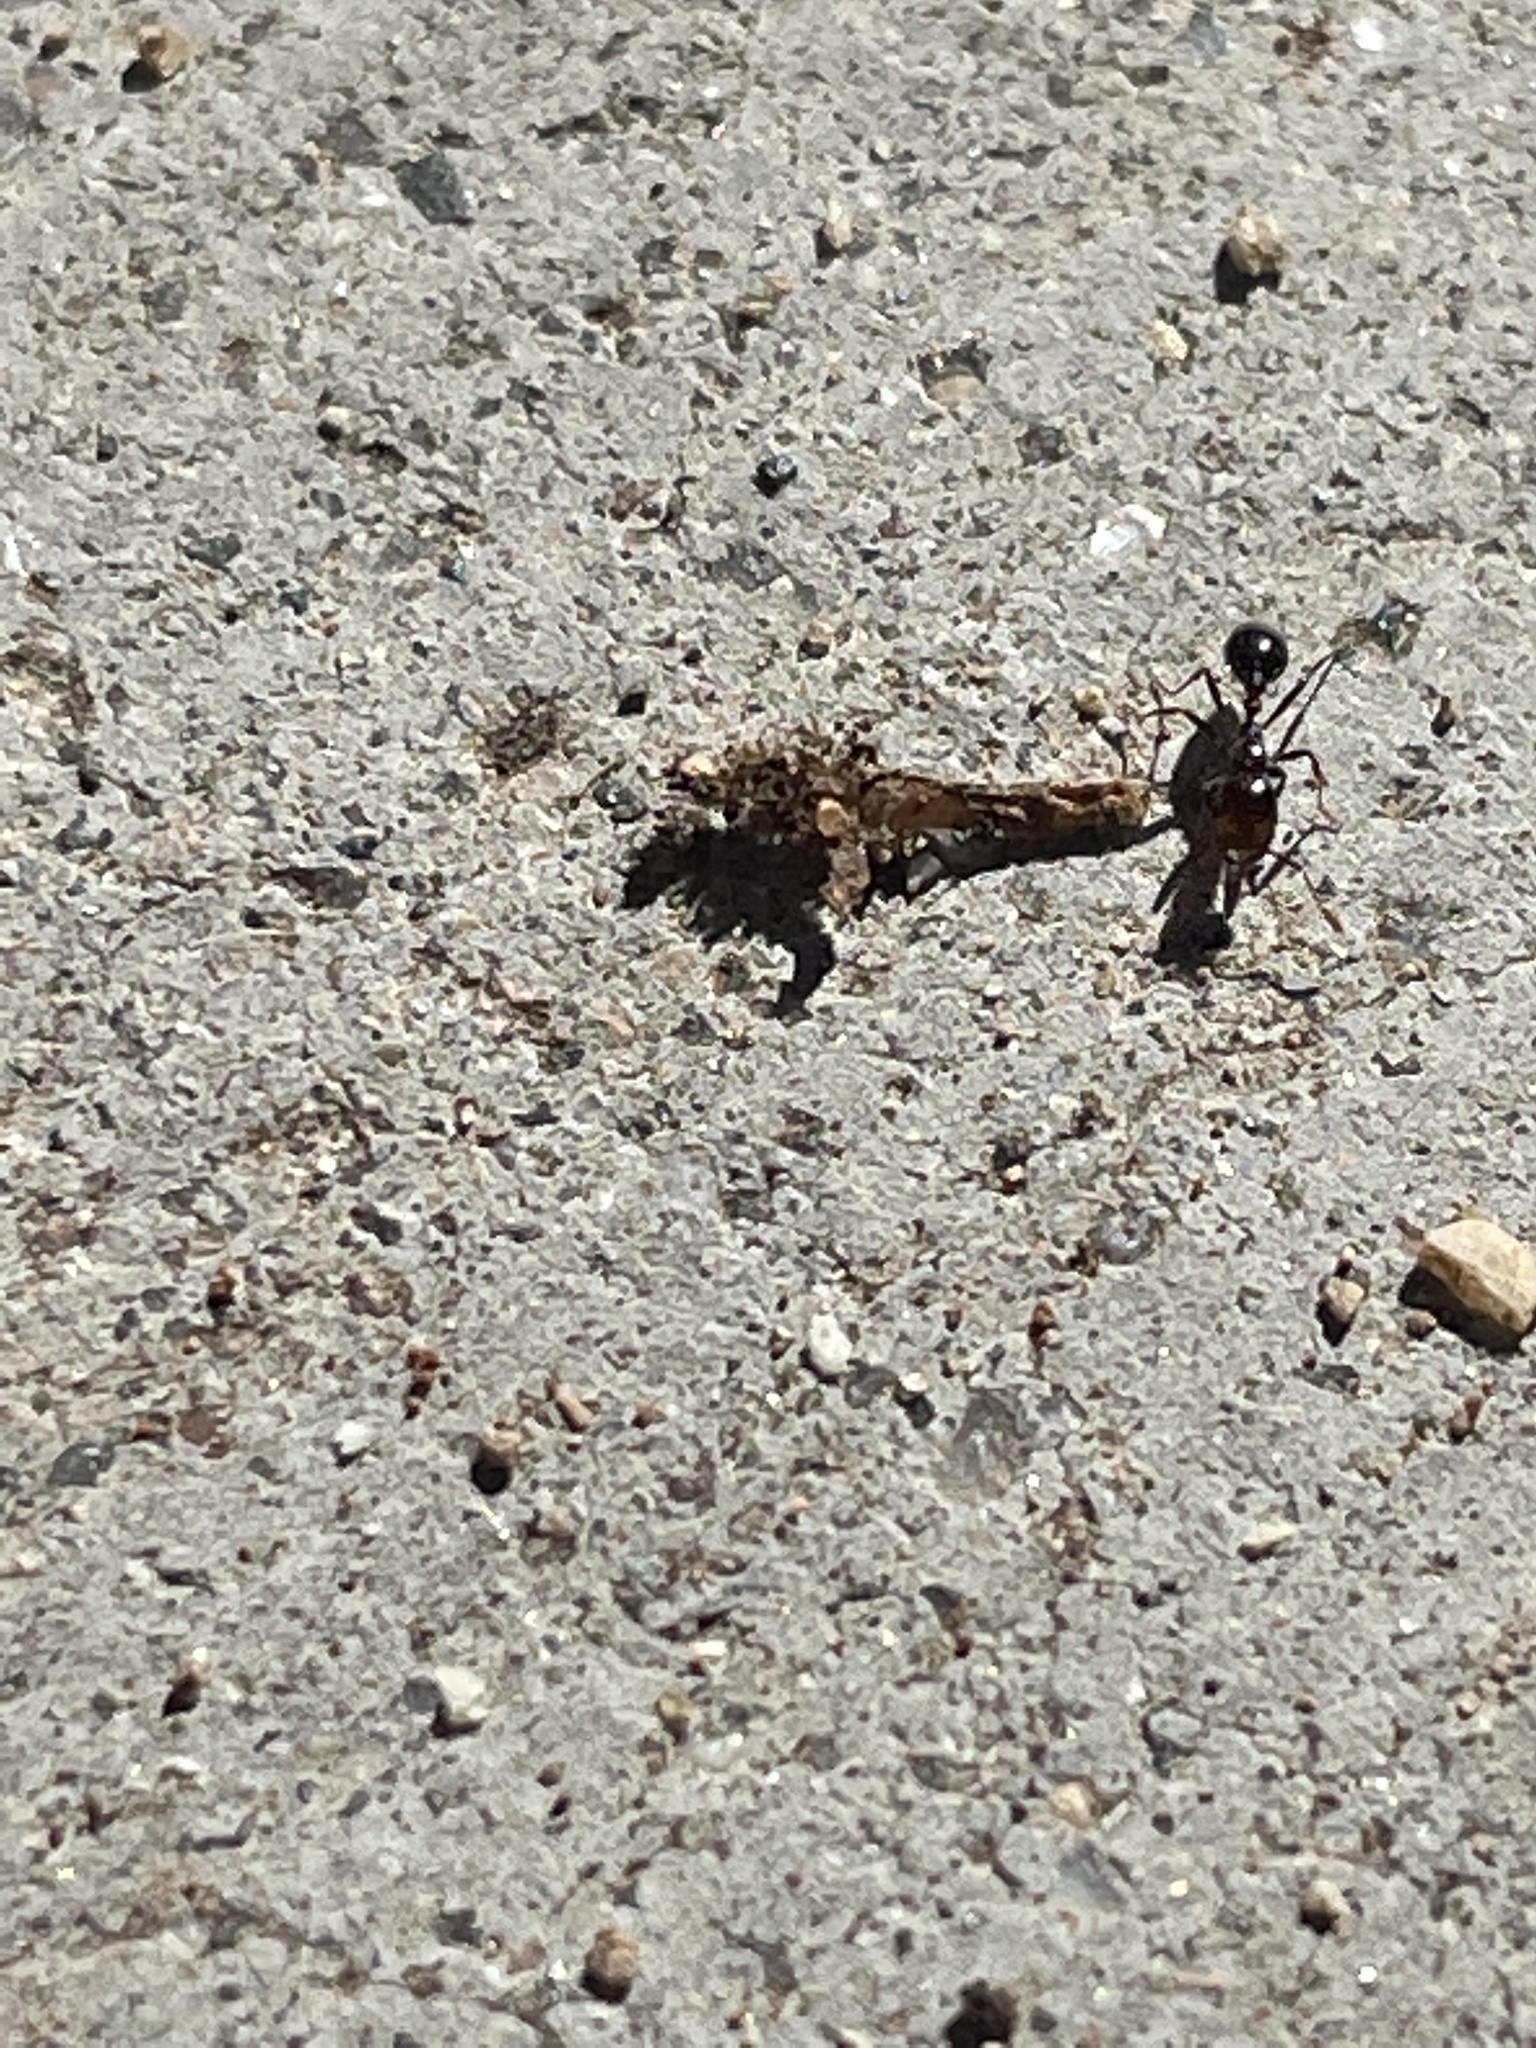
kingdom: Animalia
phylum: Arthropoda
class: Insecta
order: Hymenoptera
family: Formicidae
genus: Solenopsis
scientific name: Solenopsis xyloni
